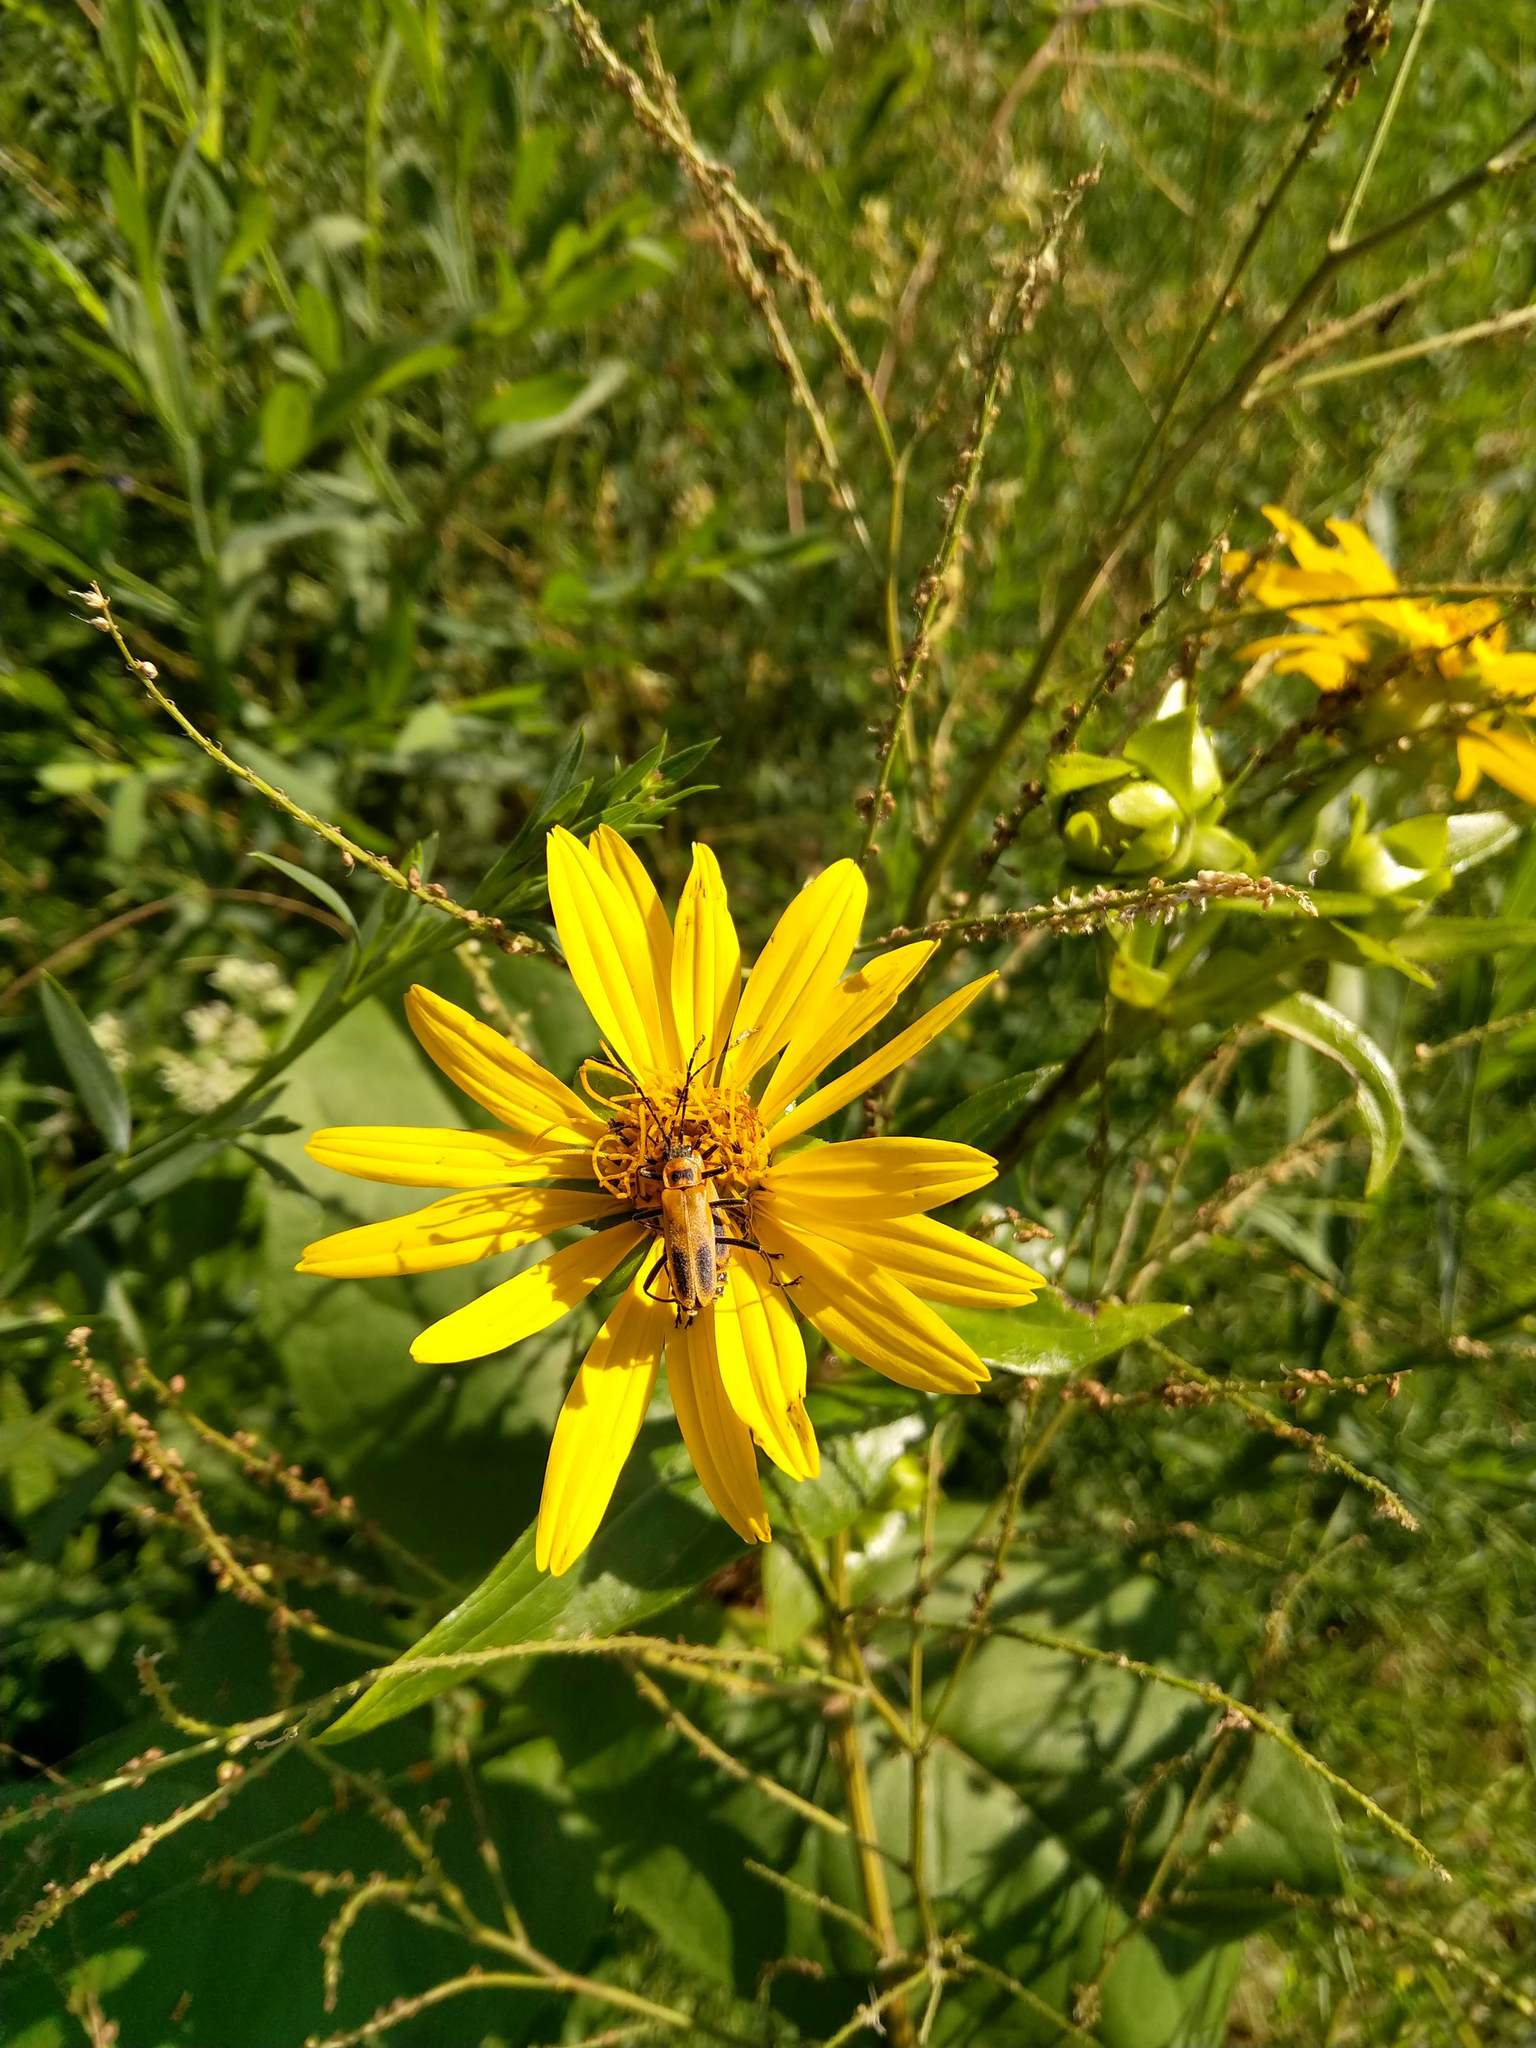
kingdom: Animalia
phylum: Arthropoda
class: Insecta
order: Coleoptera
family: Cantharidae
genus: Chauliognathus
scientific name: Chauliognathus pensylvanicus
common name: Goldenrod soldier beetle
